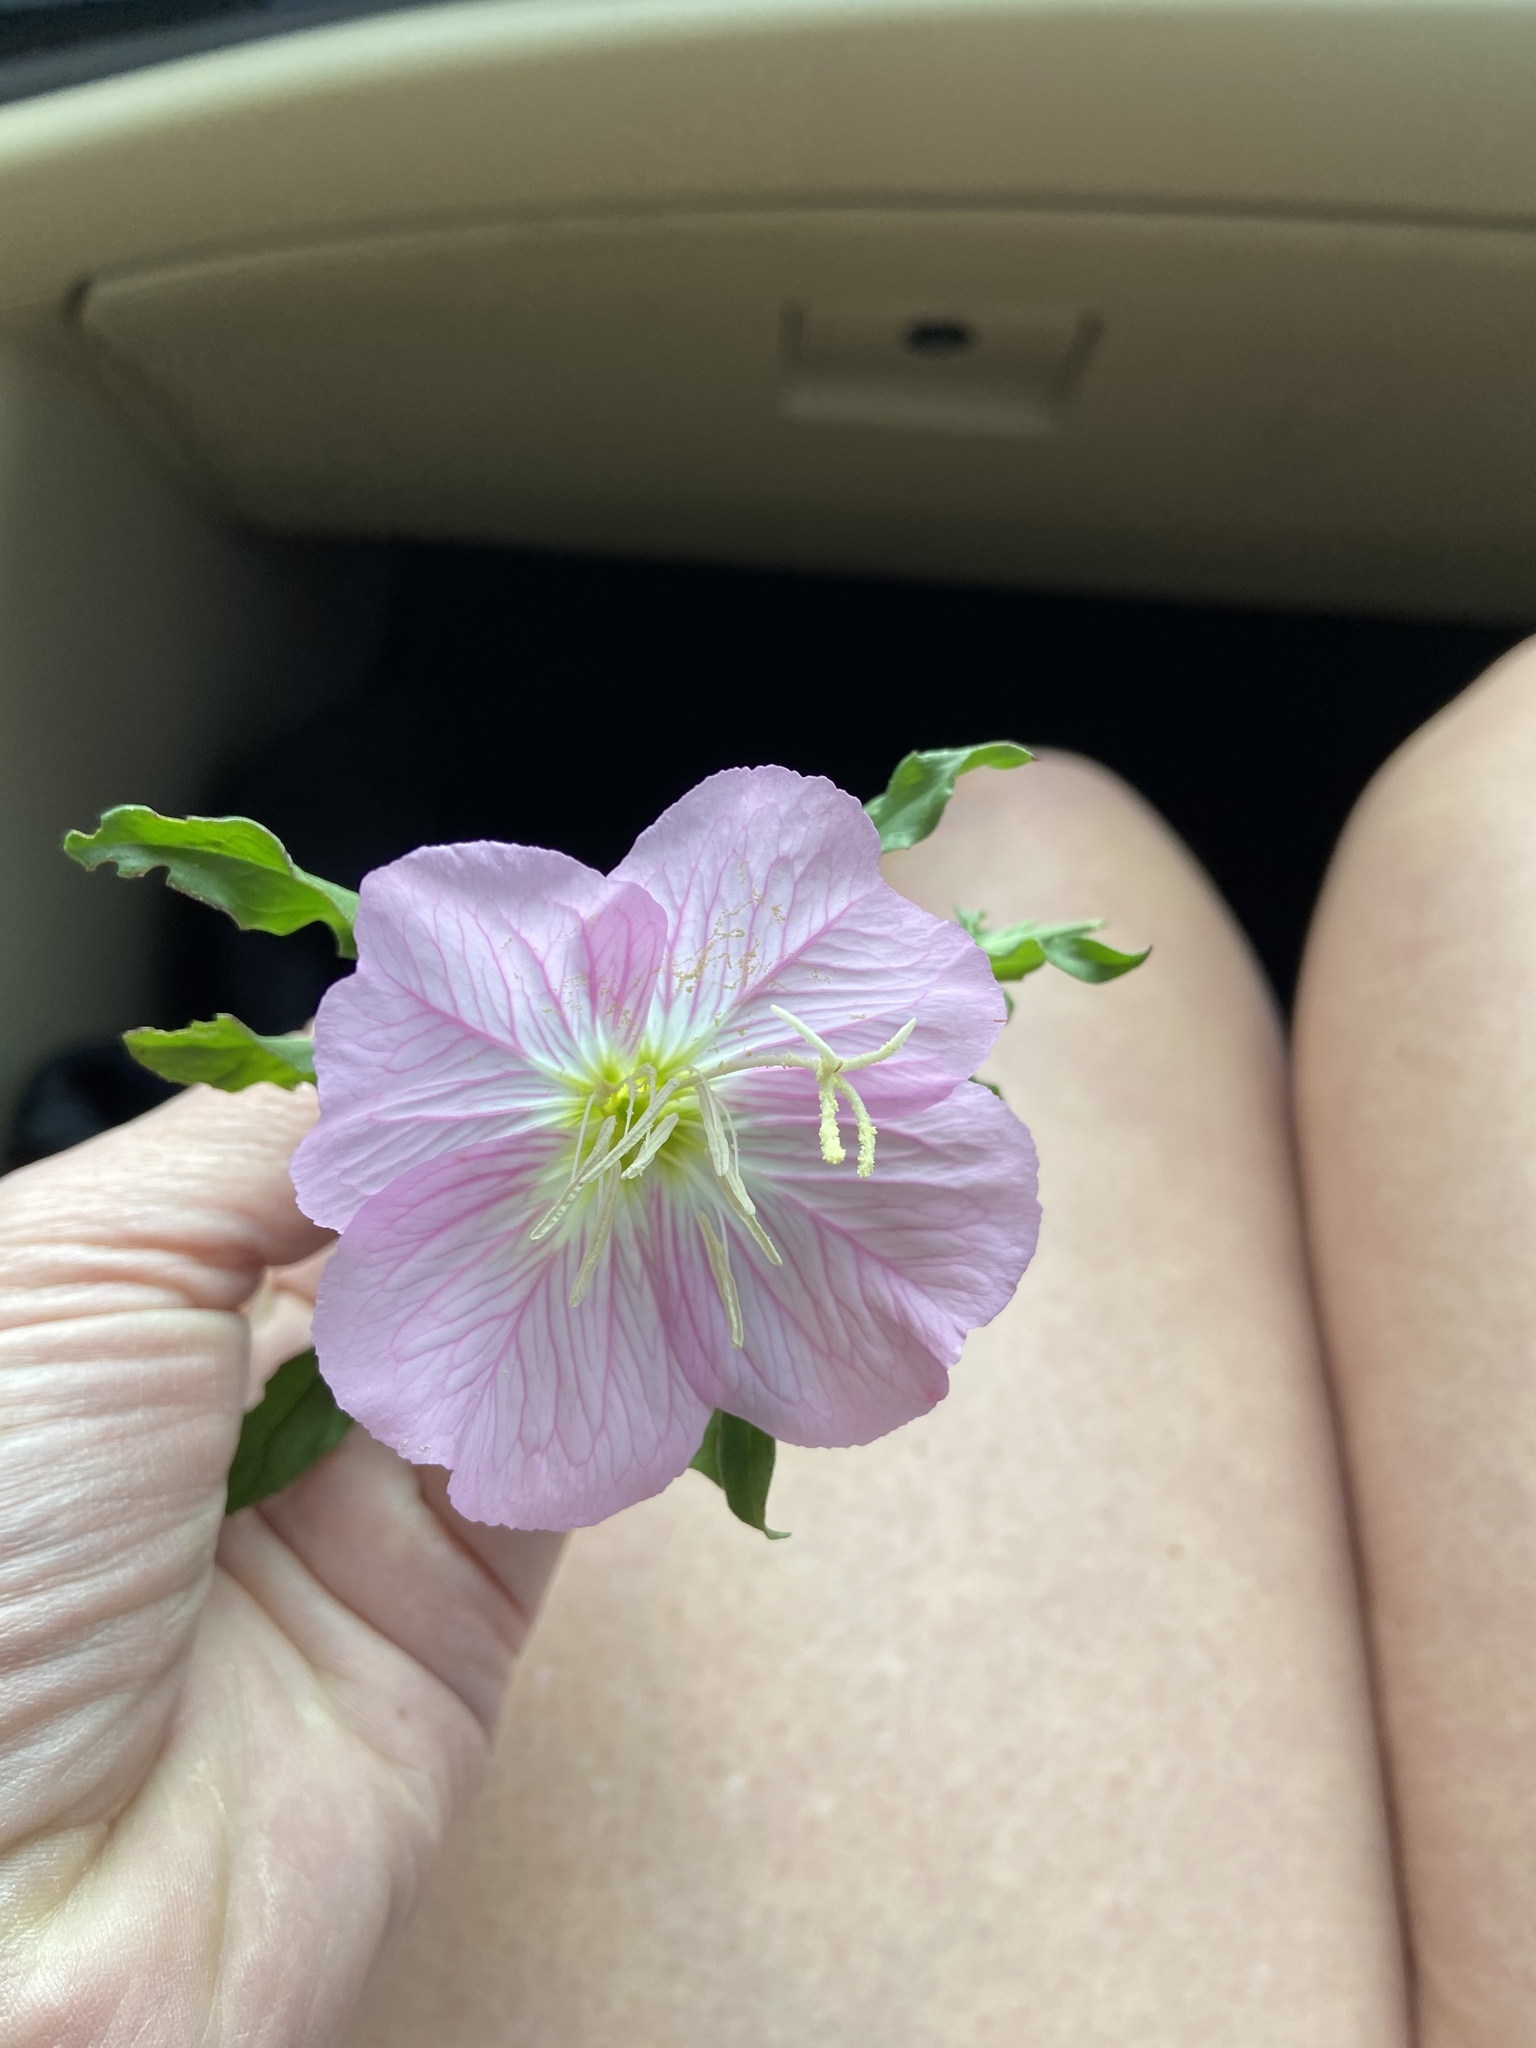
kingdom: Plantae
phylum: Tracheophyta
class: Magnoliopsida
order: Myrtales
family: Onagraceae
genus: Oenothera
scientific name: Oenothera speciosa
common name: White evening-primrose
